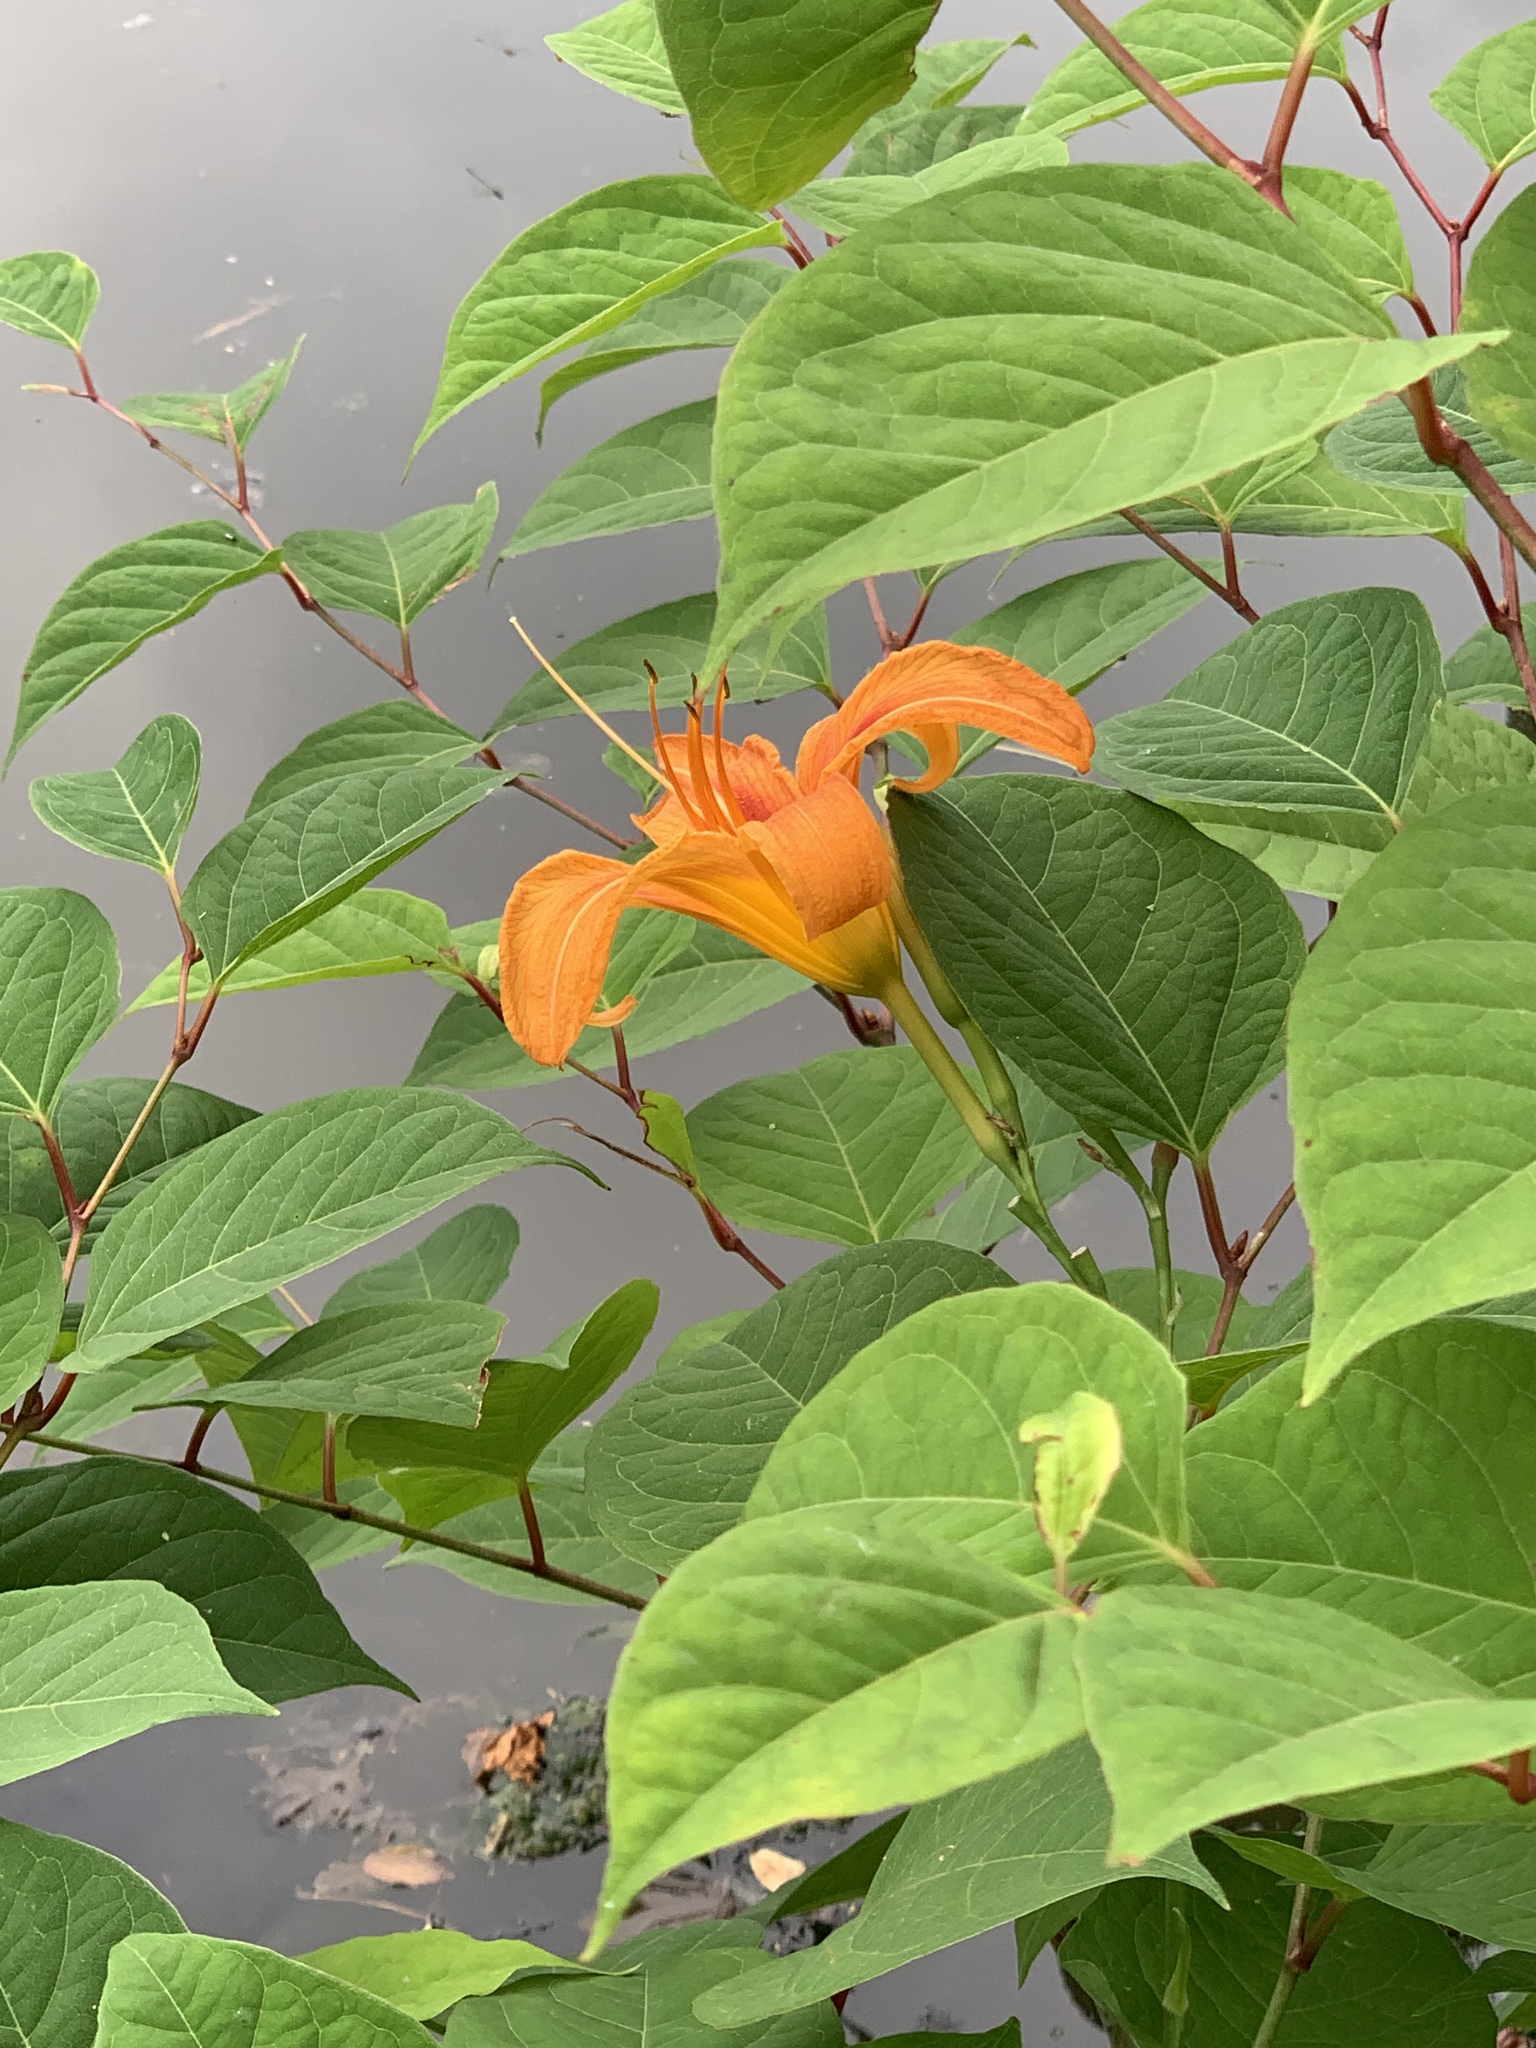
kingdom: Plantae
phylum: Tracheophyta
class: Liliopsida
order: Asparagales
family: Asphodelaceae
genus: Hemerocallis
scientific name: Hemerocallis fulva
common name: Orange day-lily
